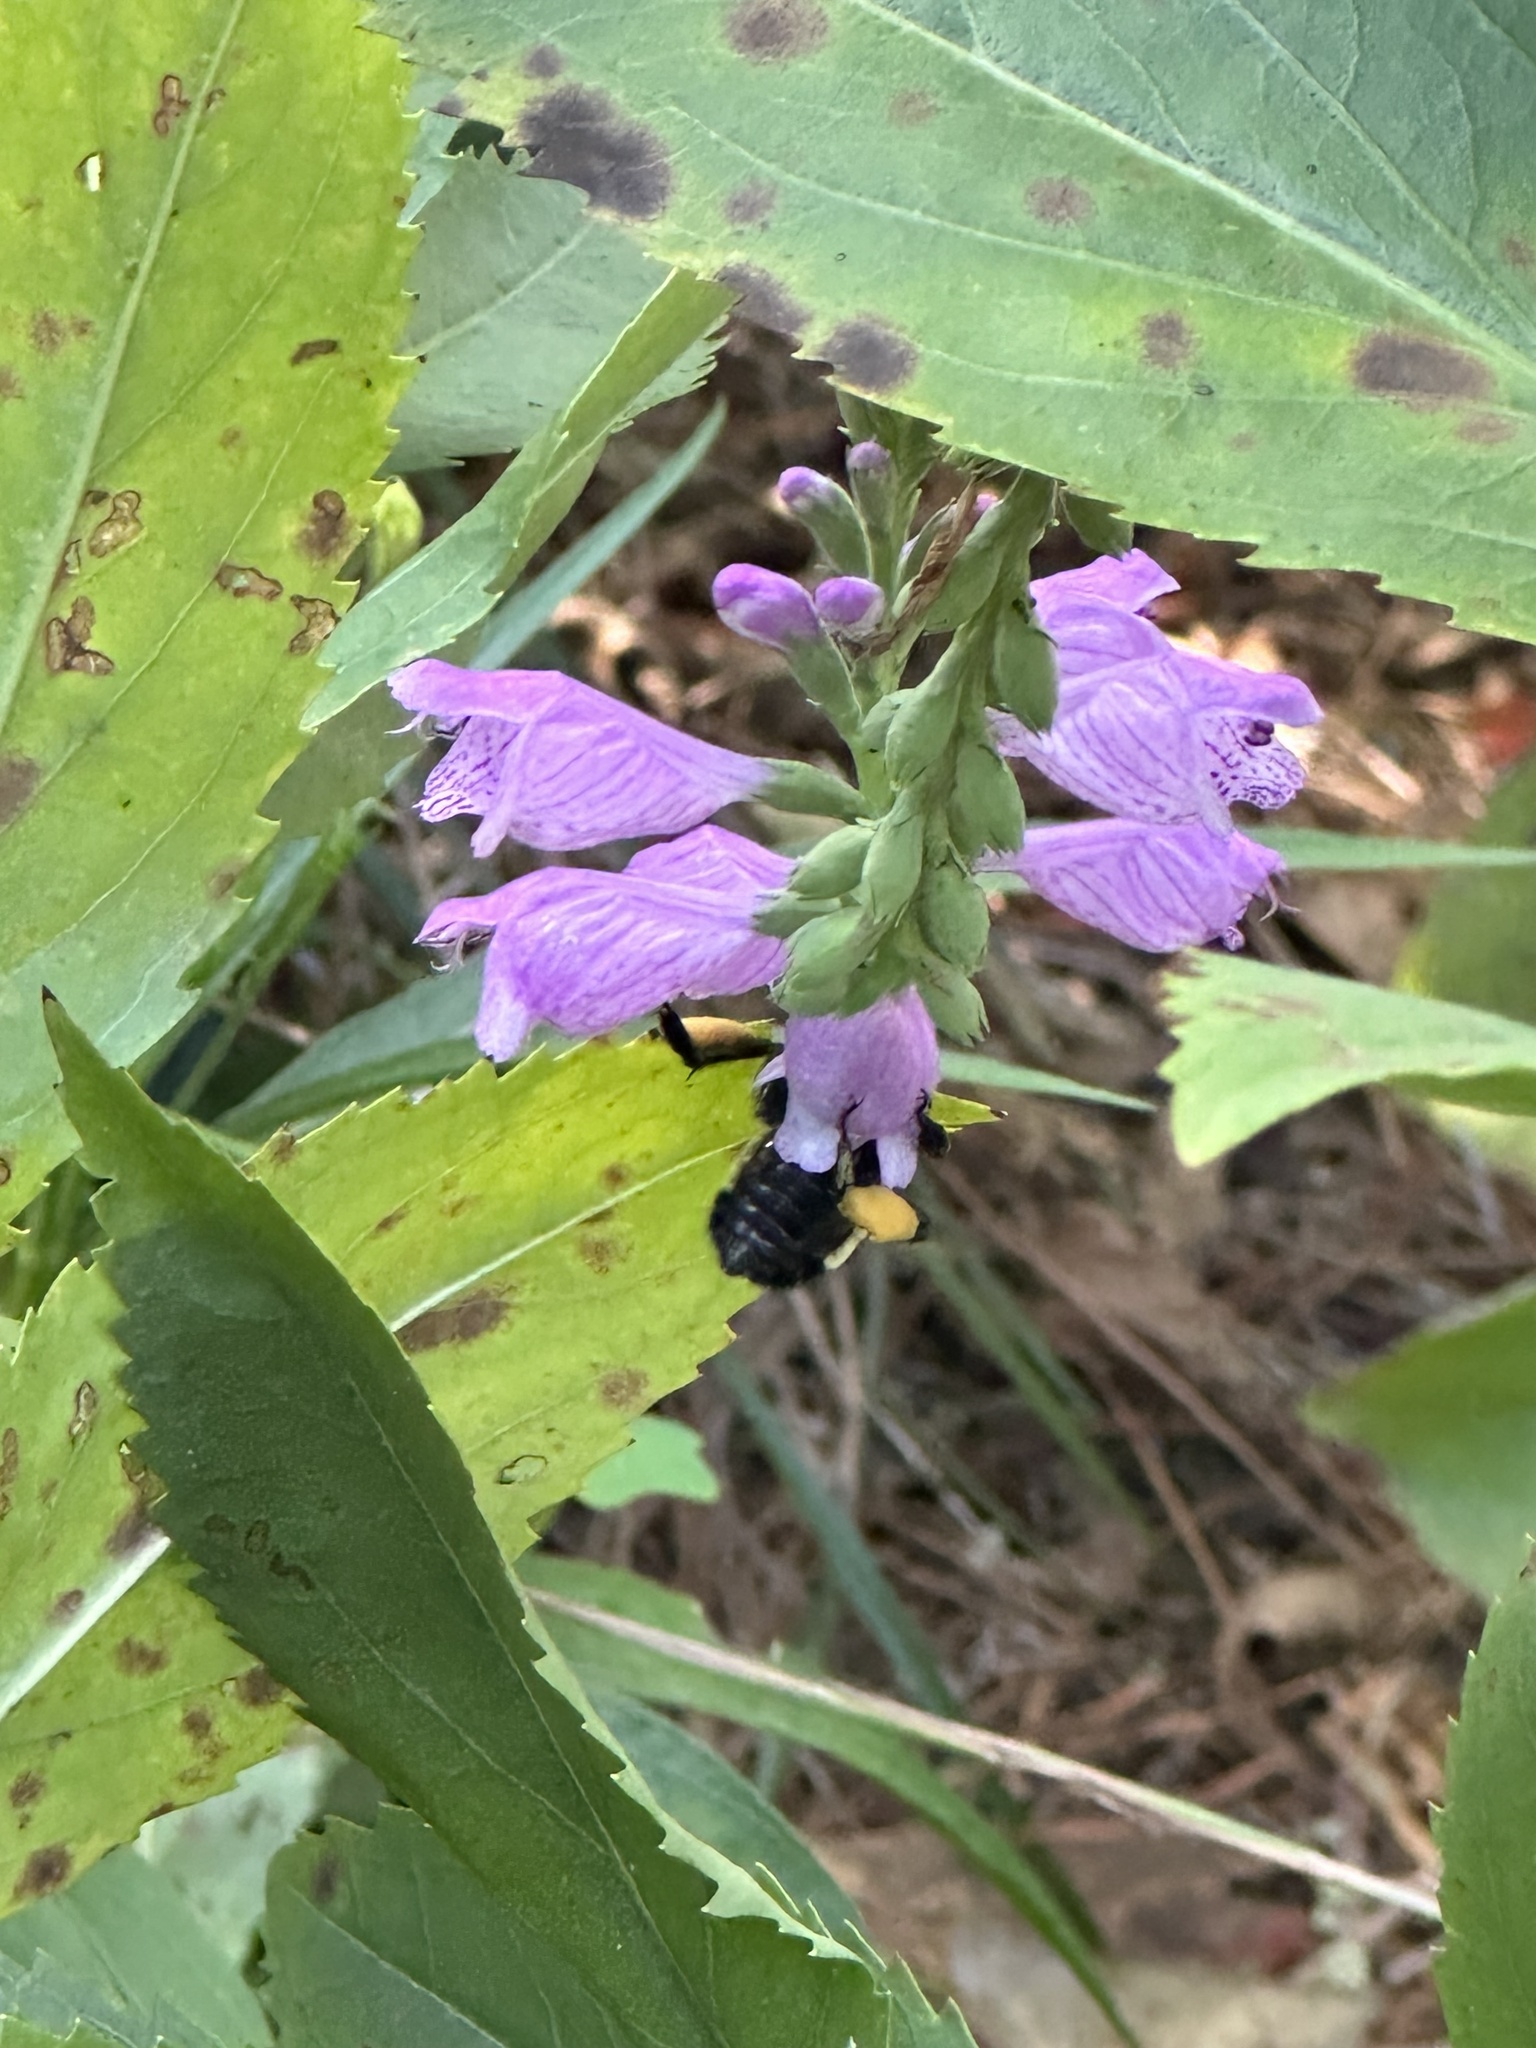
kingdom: Animalia
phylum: Arthropoda
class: Insecta
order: Hymenoptera
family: Apidae
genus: Bombus
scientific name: Bombus pensylvanicus
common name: Bumble bee
